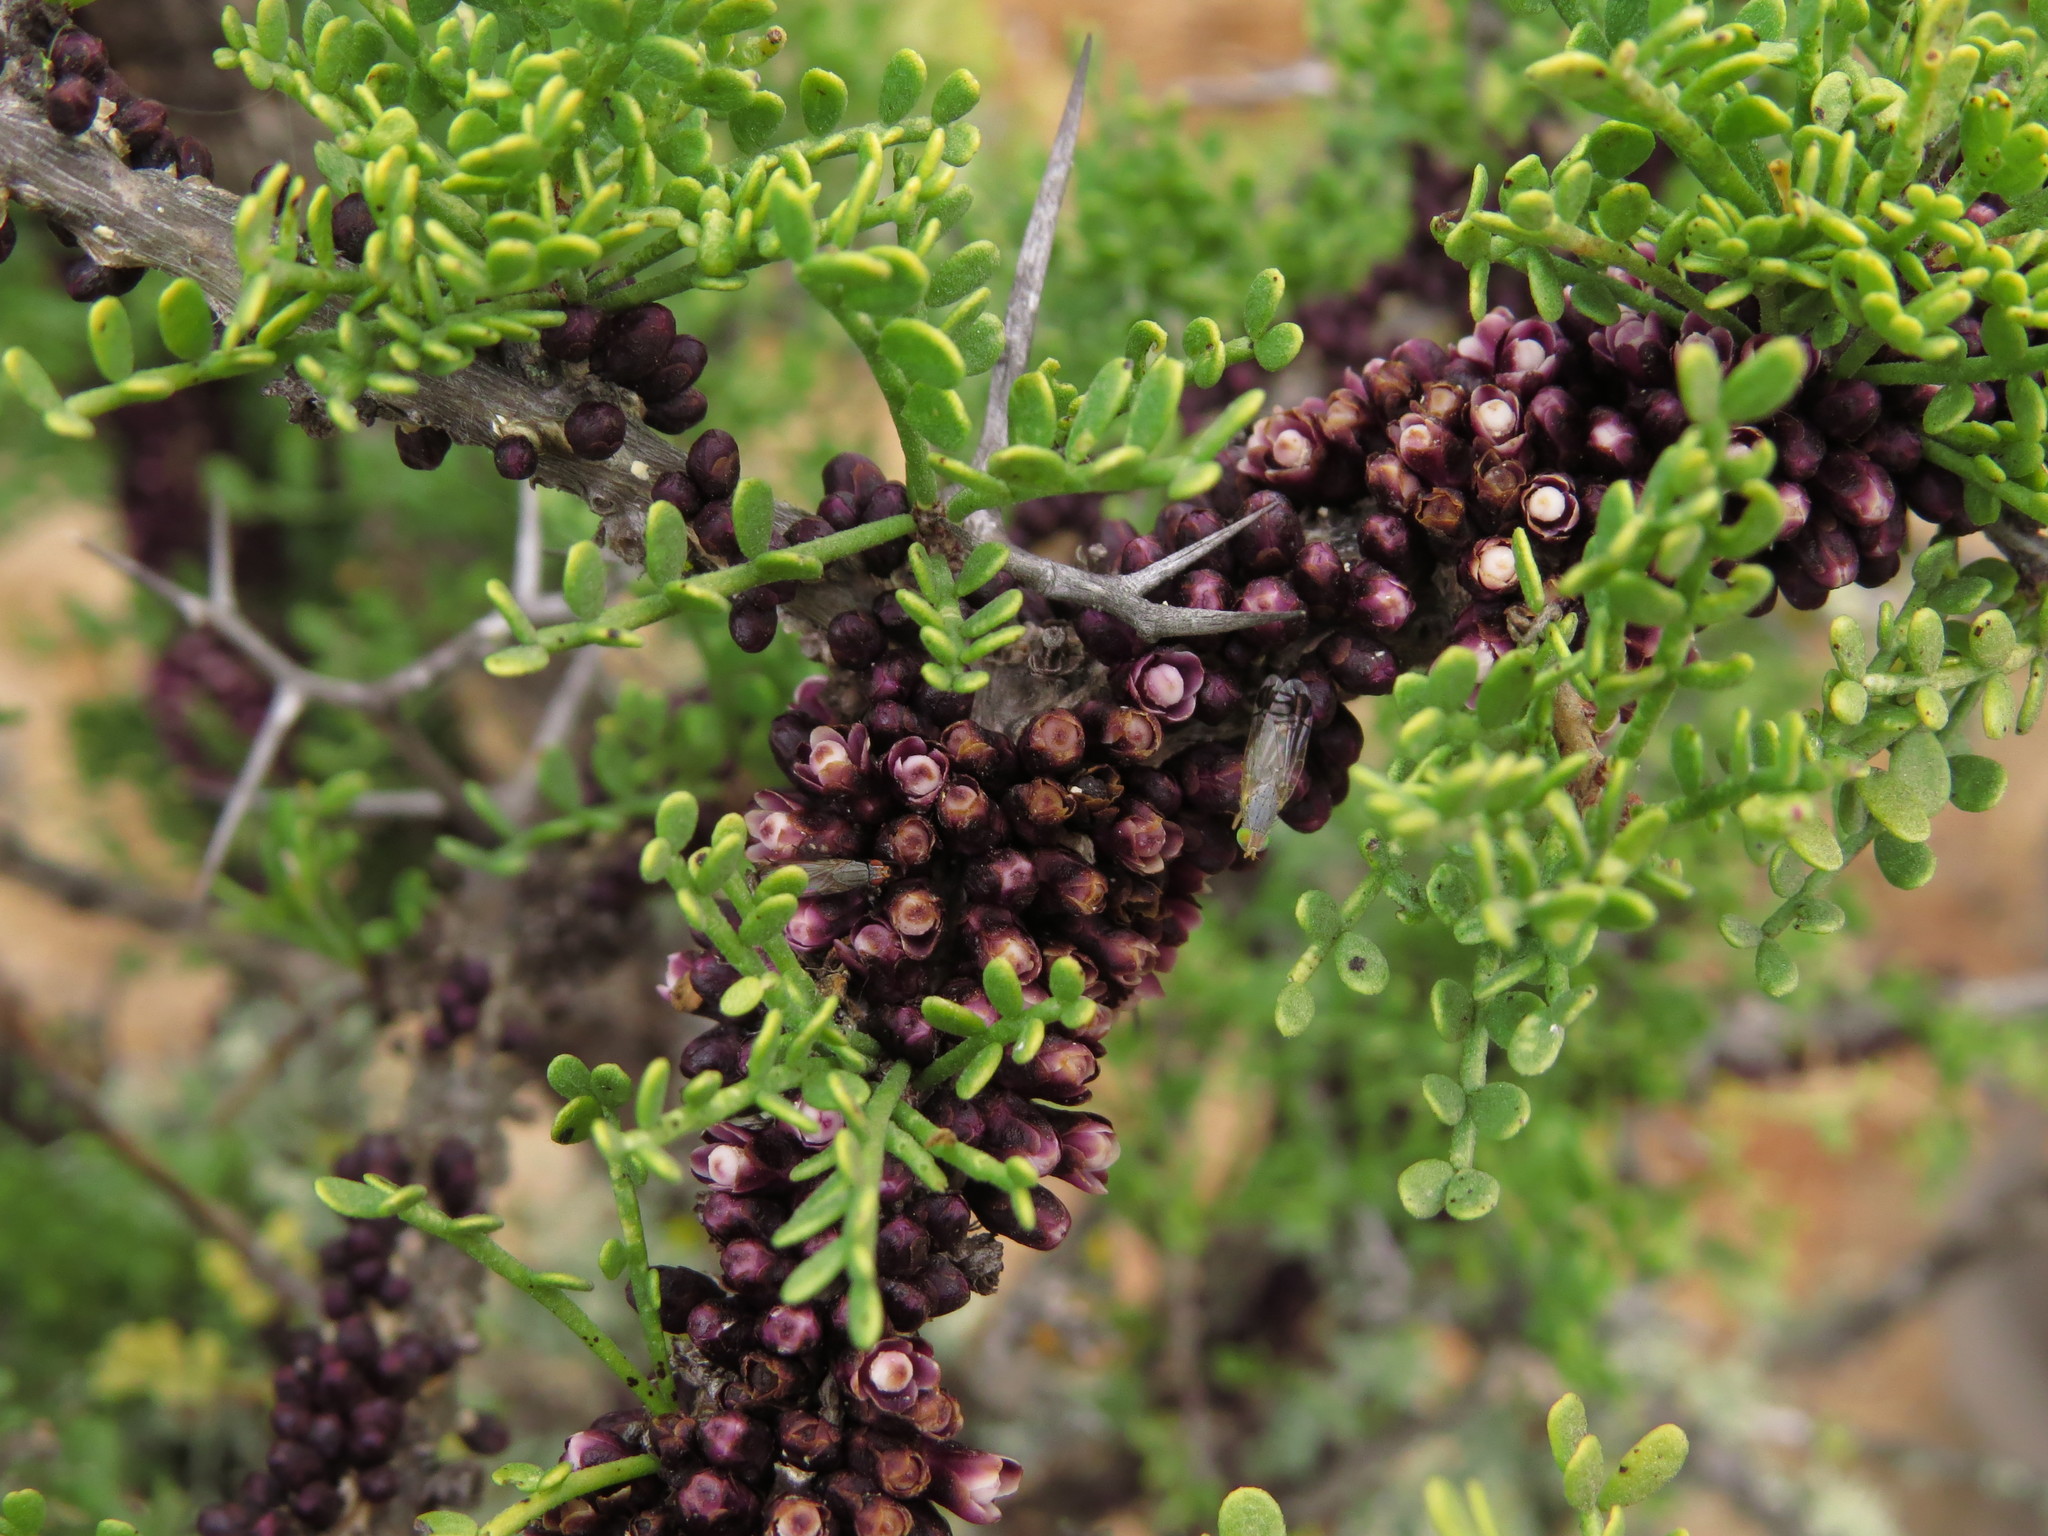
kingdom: Plantae
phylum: Tracheophyta
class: Magnoliopsida
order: Cucurbitales
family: Apodanthaceae
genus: Pilostyles
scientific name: Pilostyles berteroi
